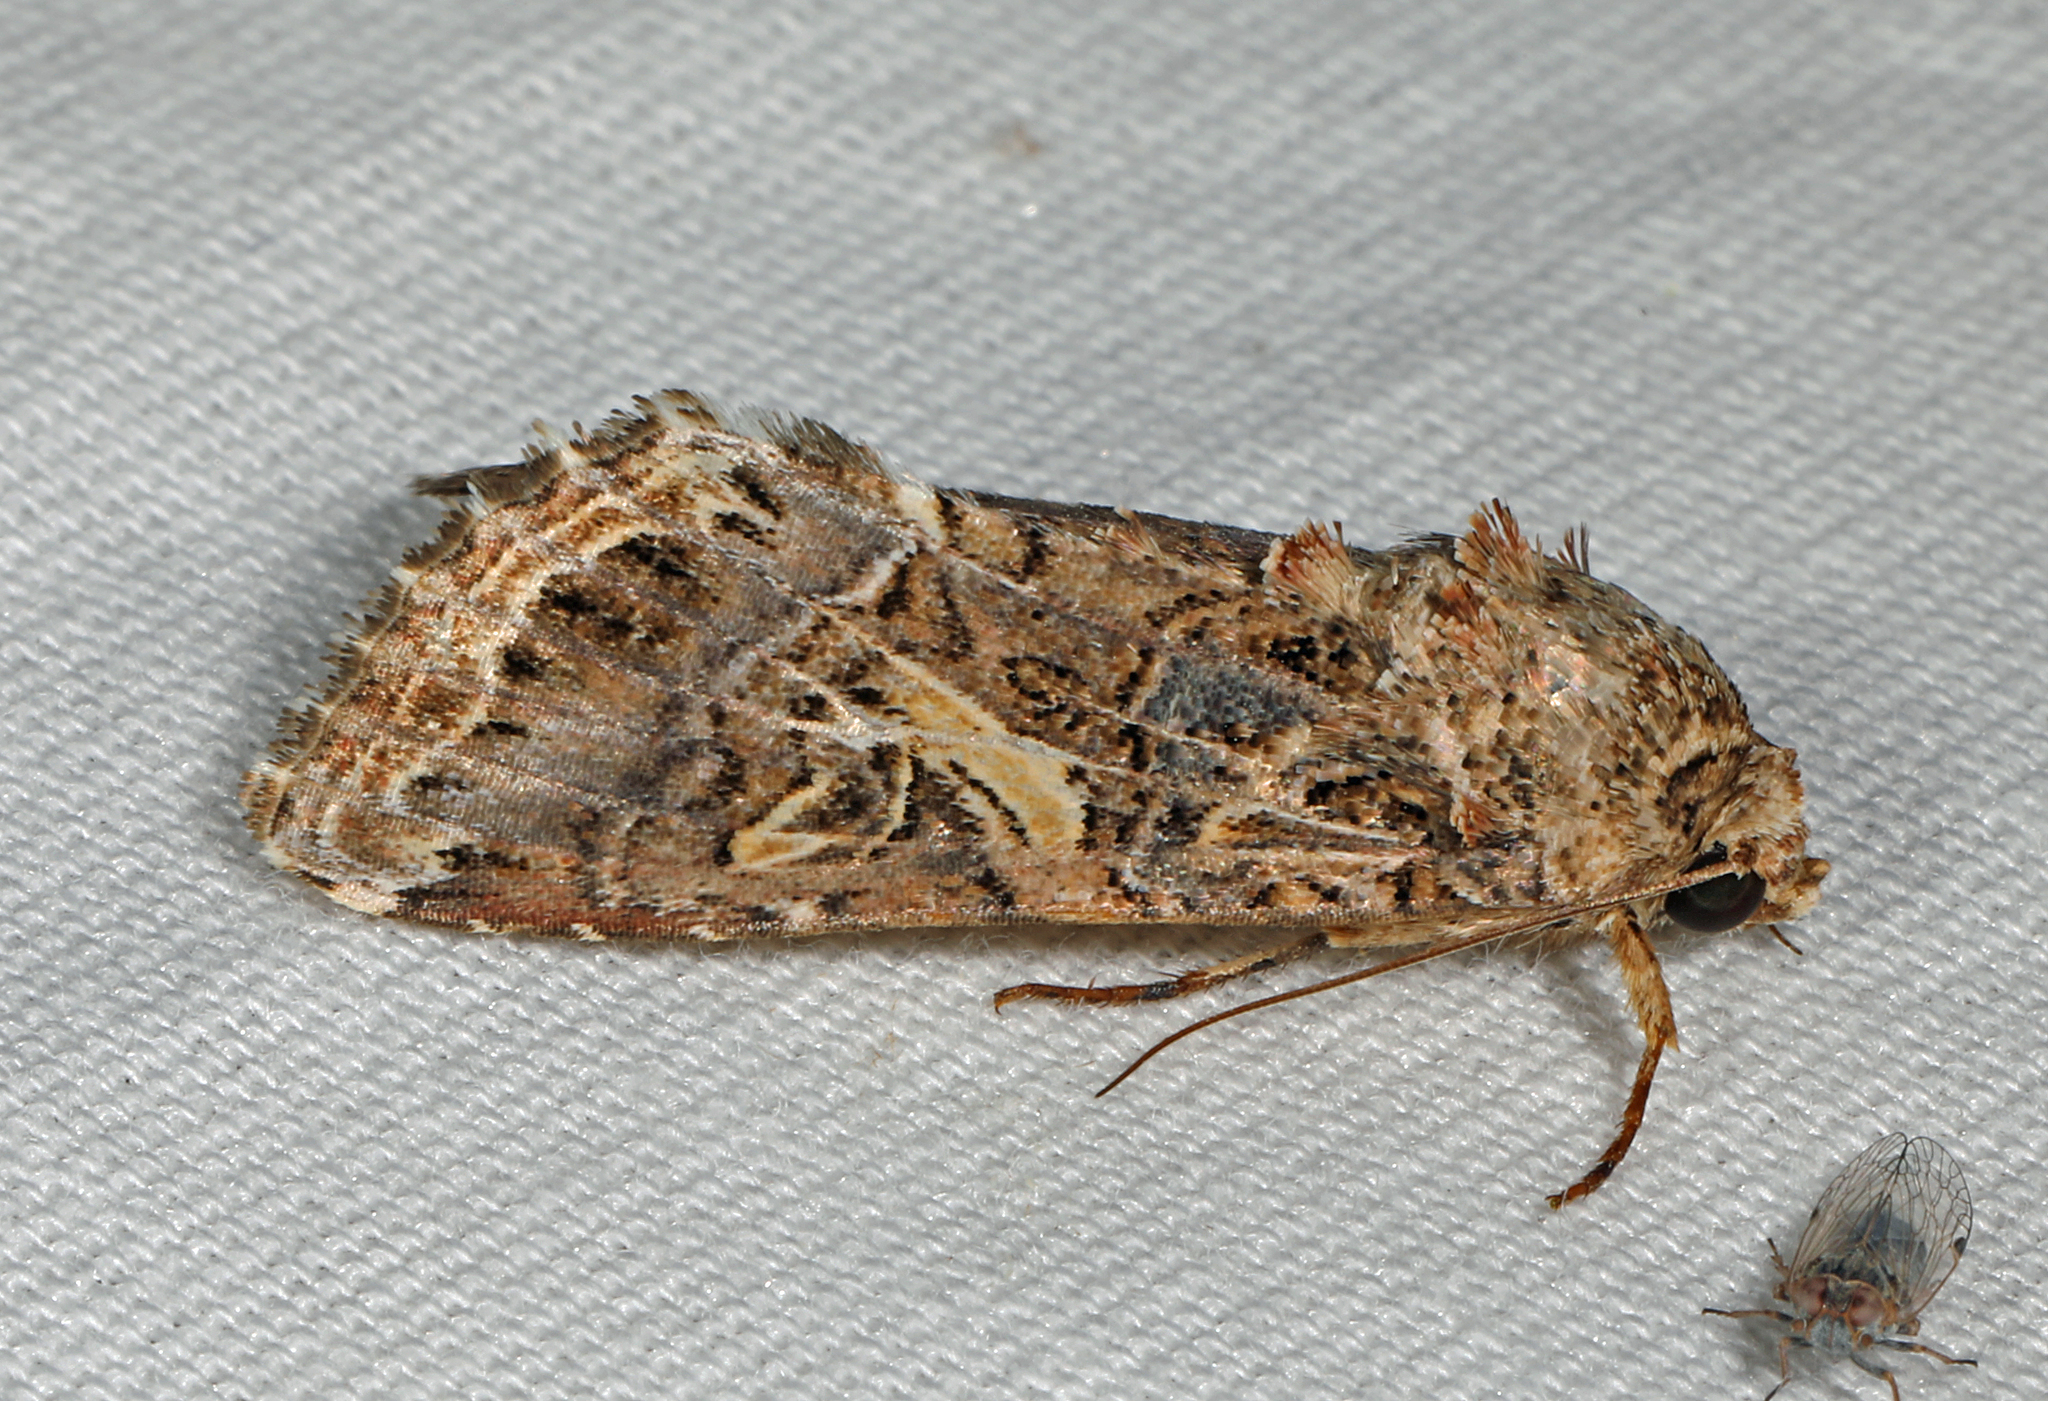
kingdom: Animalia
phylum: Arthropoda
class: Insecta
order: Lepidoptera
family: Noctuidae
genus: Spodoptera
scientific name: Spodoptera ornithogalli
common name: Yellow-striped armyworm
